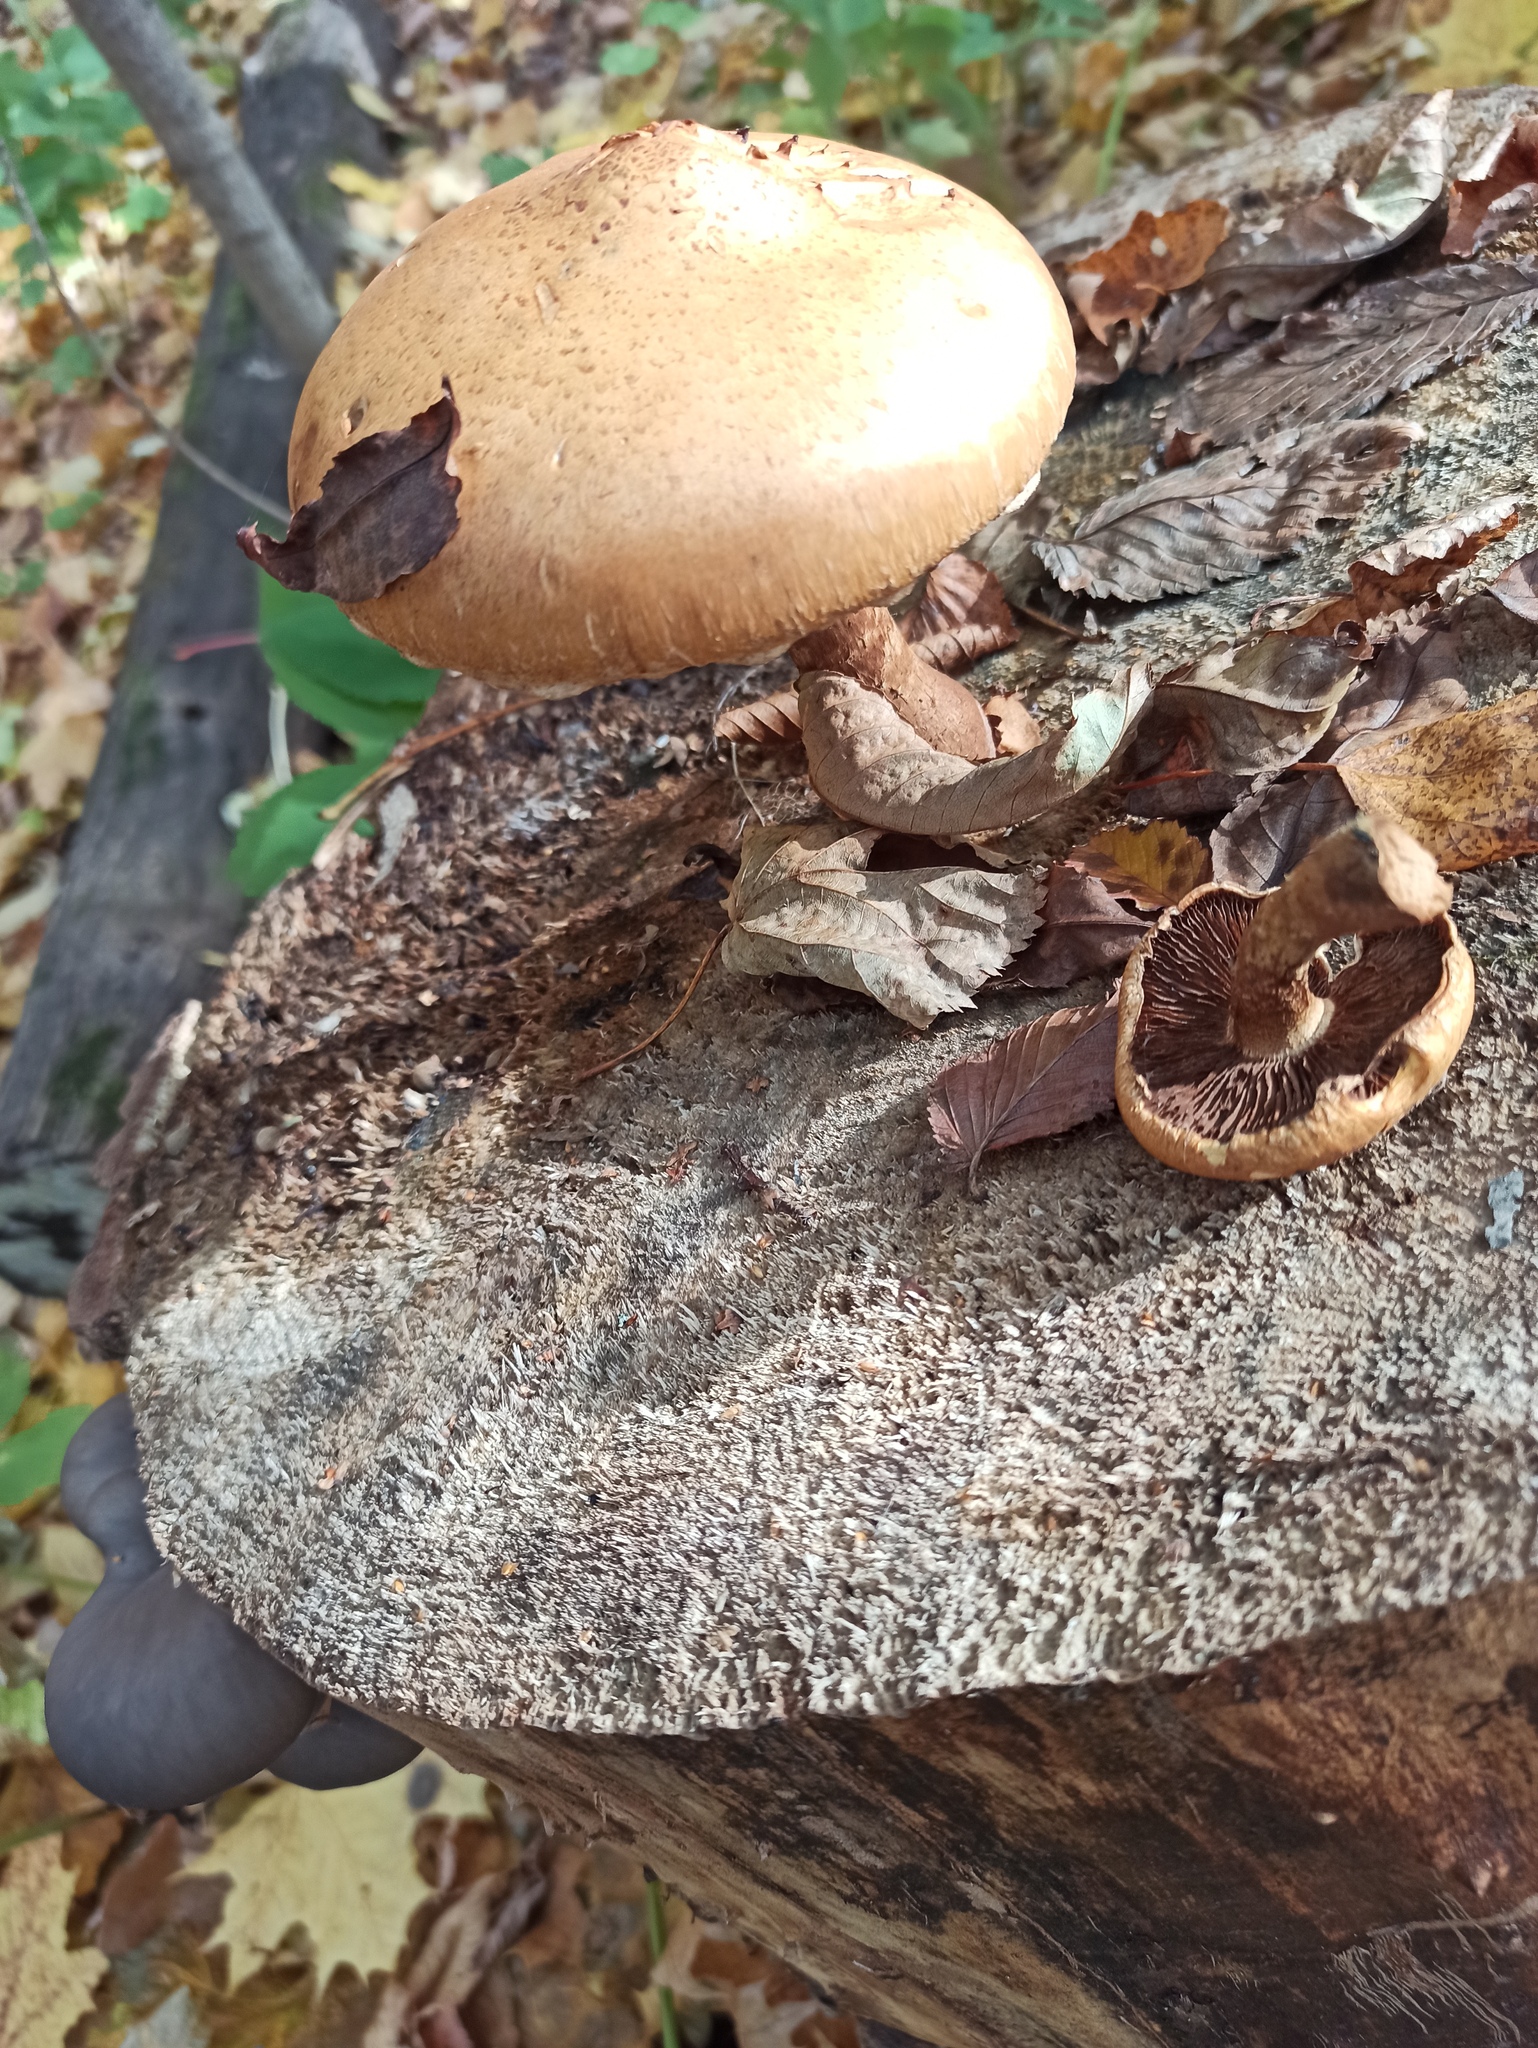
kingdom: Fungi
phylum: Basidiomycota
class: Agaricomycetes
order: Agaricales
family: Psathyrellaceae
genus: Lacrymaria
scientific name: Lacrymaria lacrymabunda
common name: Weeping widow
